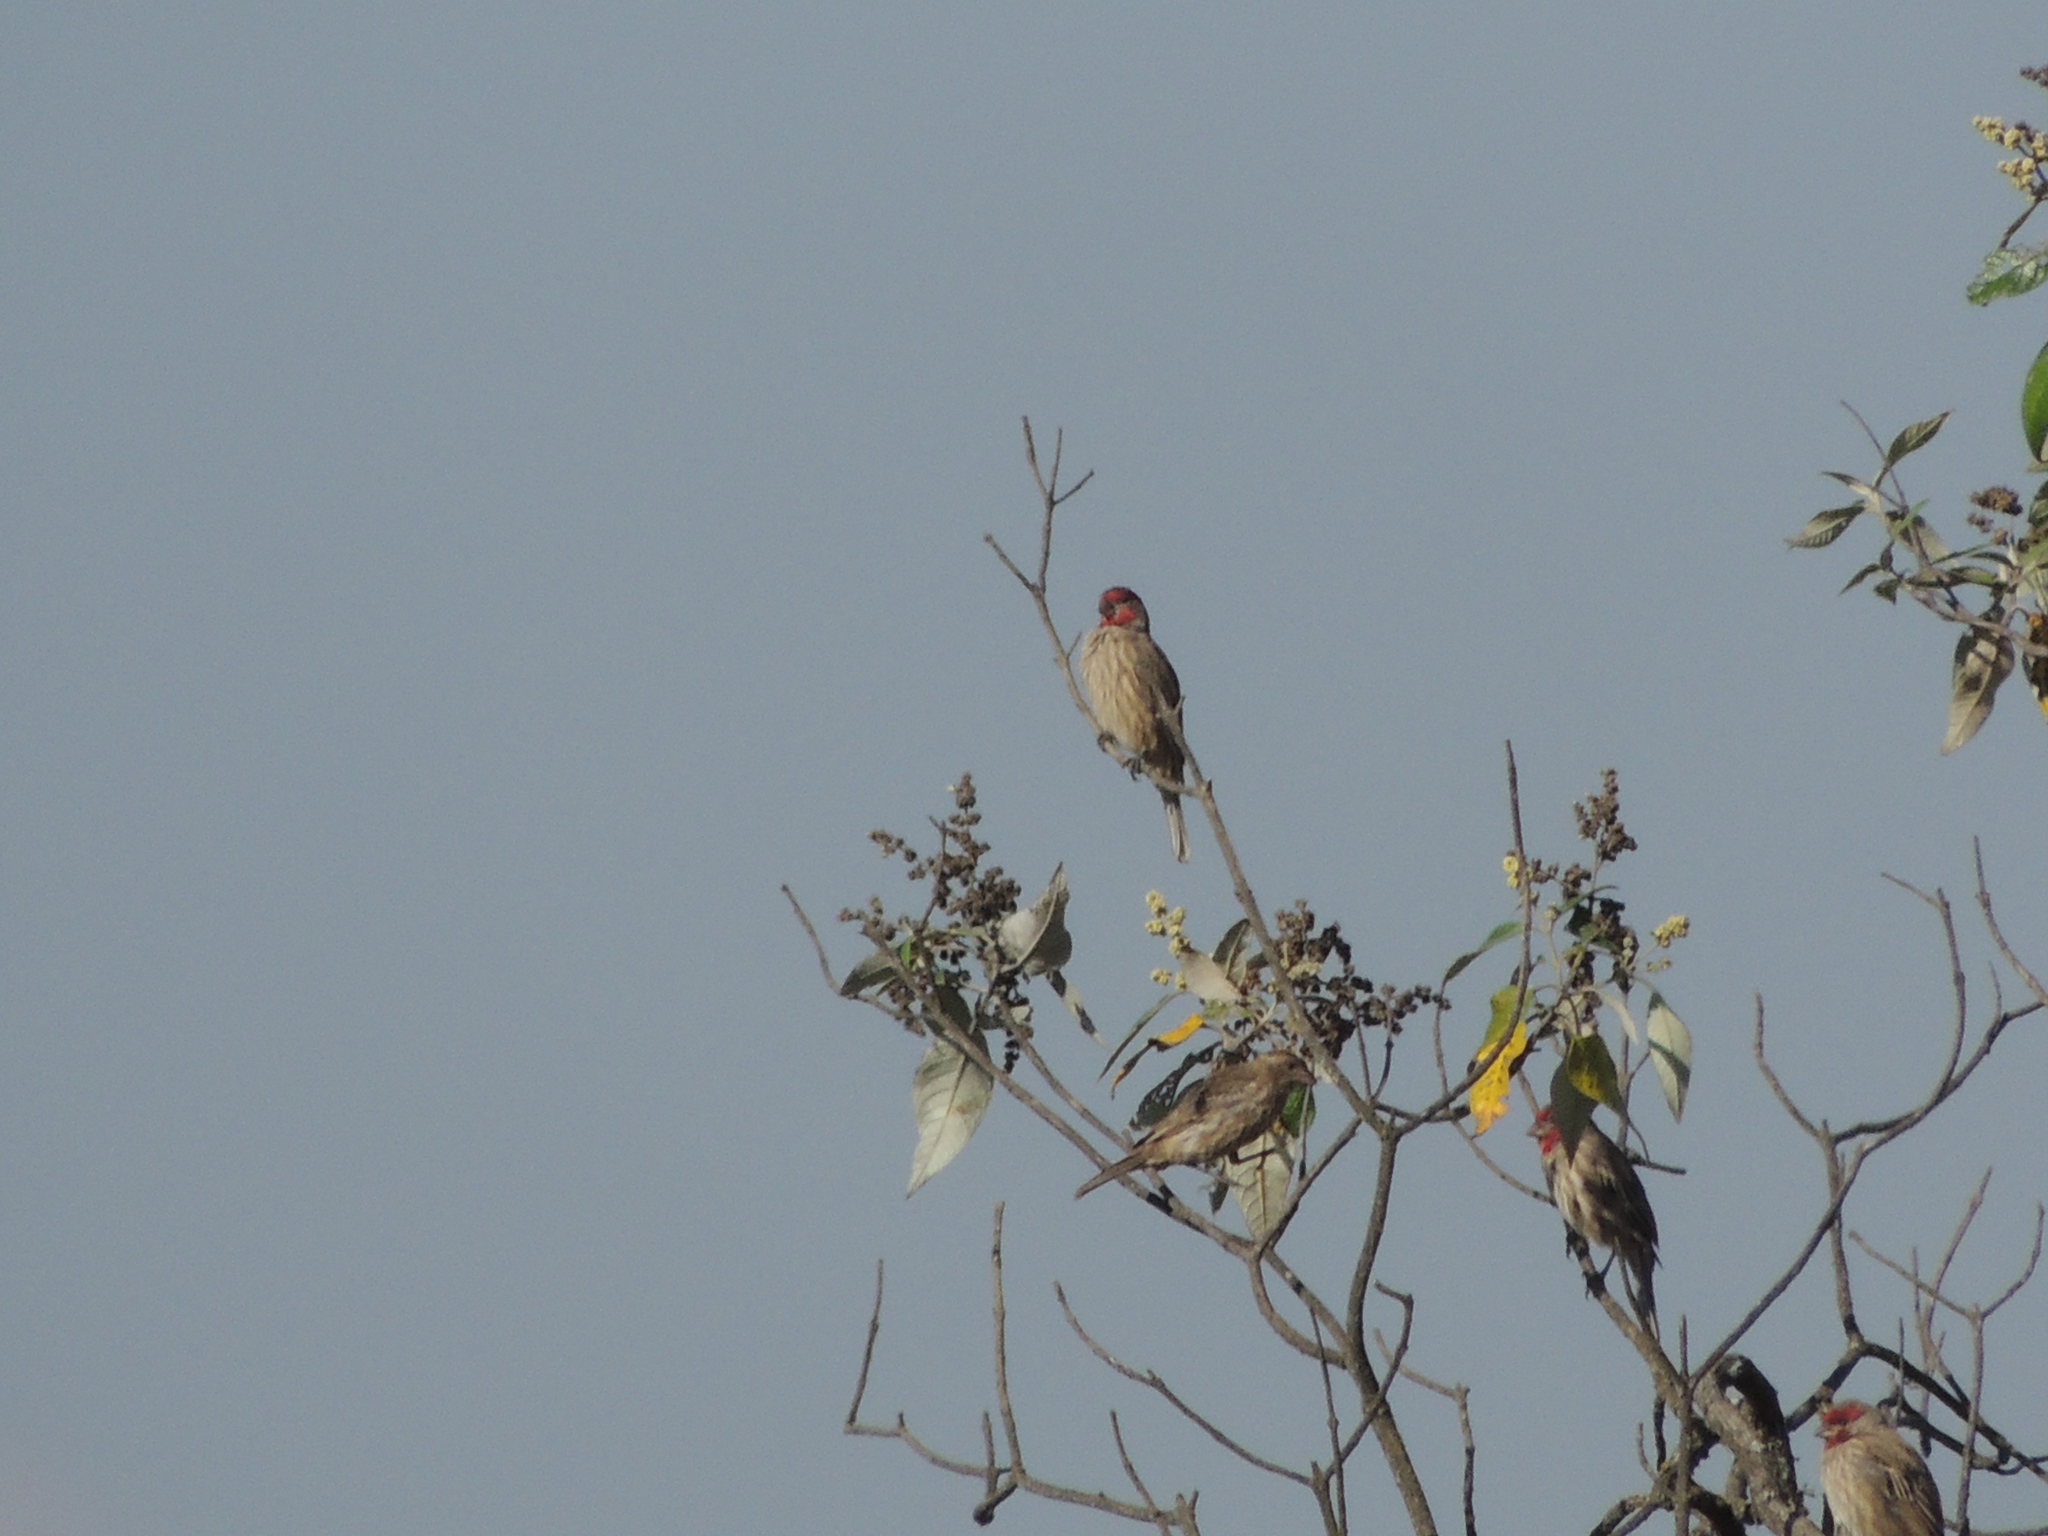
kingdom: Animalia
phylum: Chordata
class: Aves
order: Passeriformes
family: Fringillidae
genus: Haemorhous
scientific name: Haemorhous mexicanus
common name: House finch
